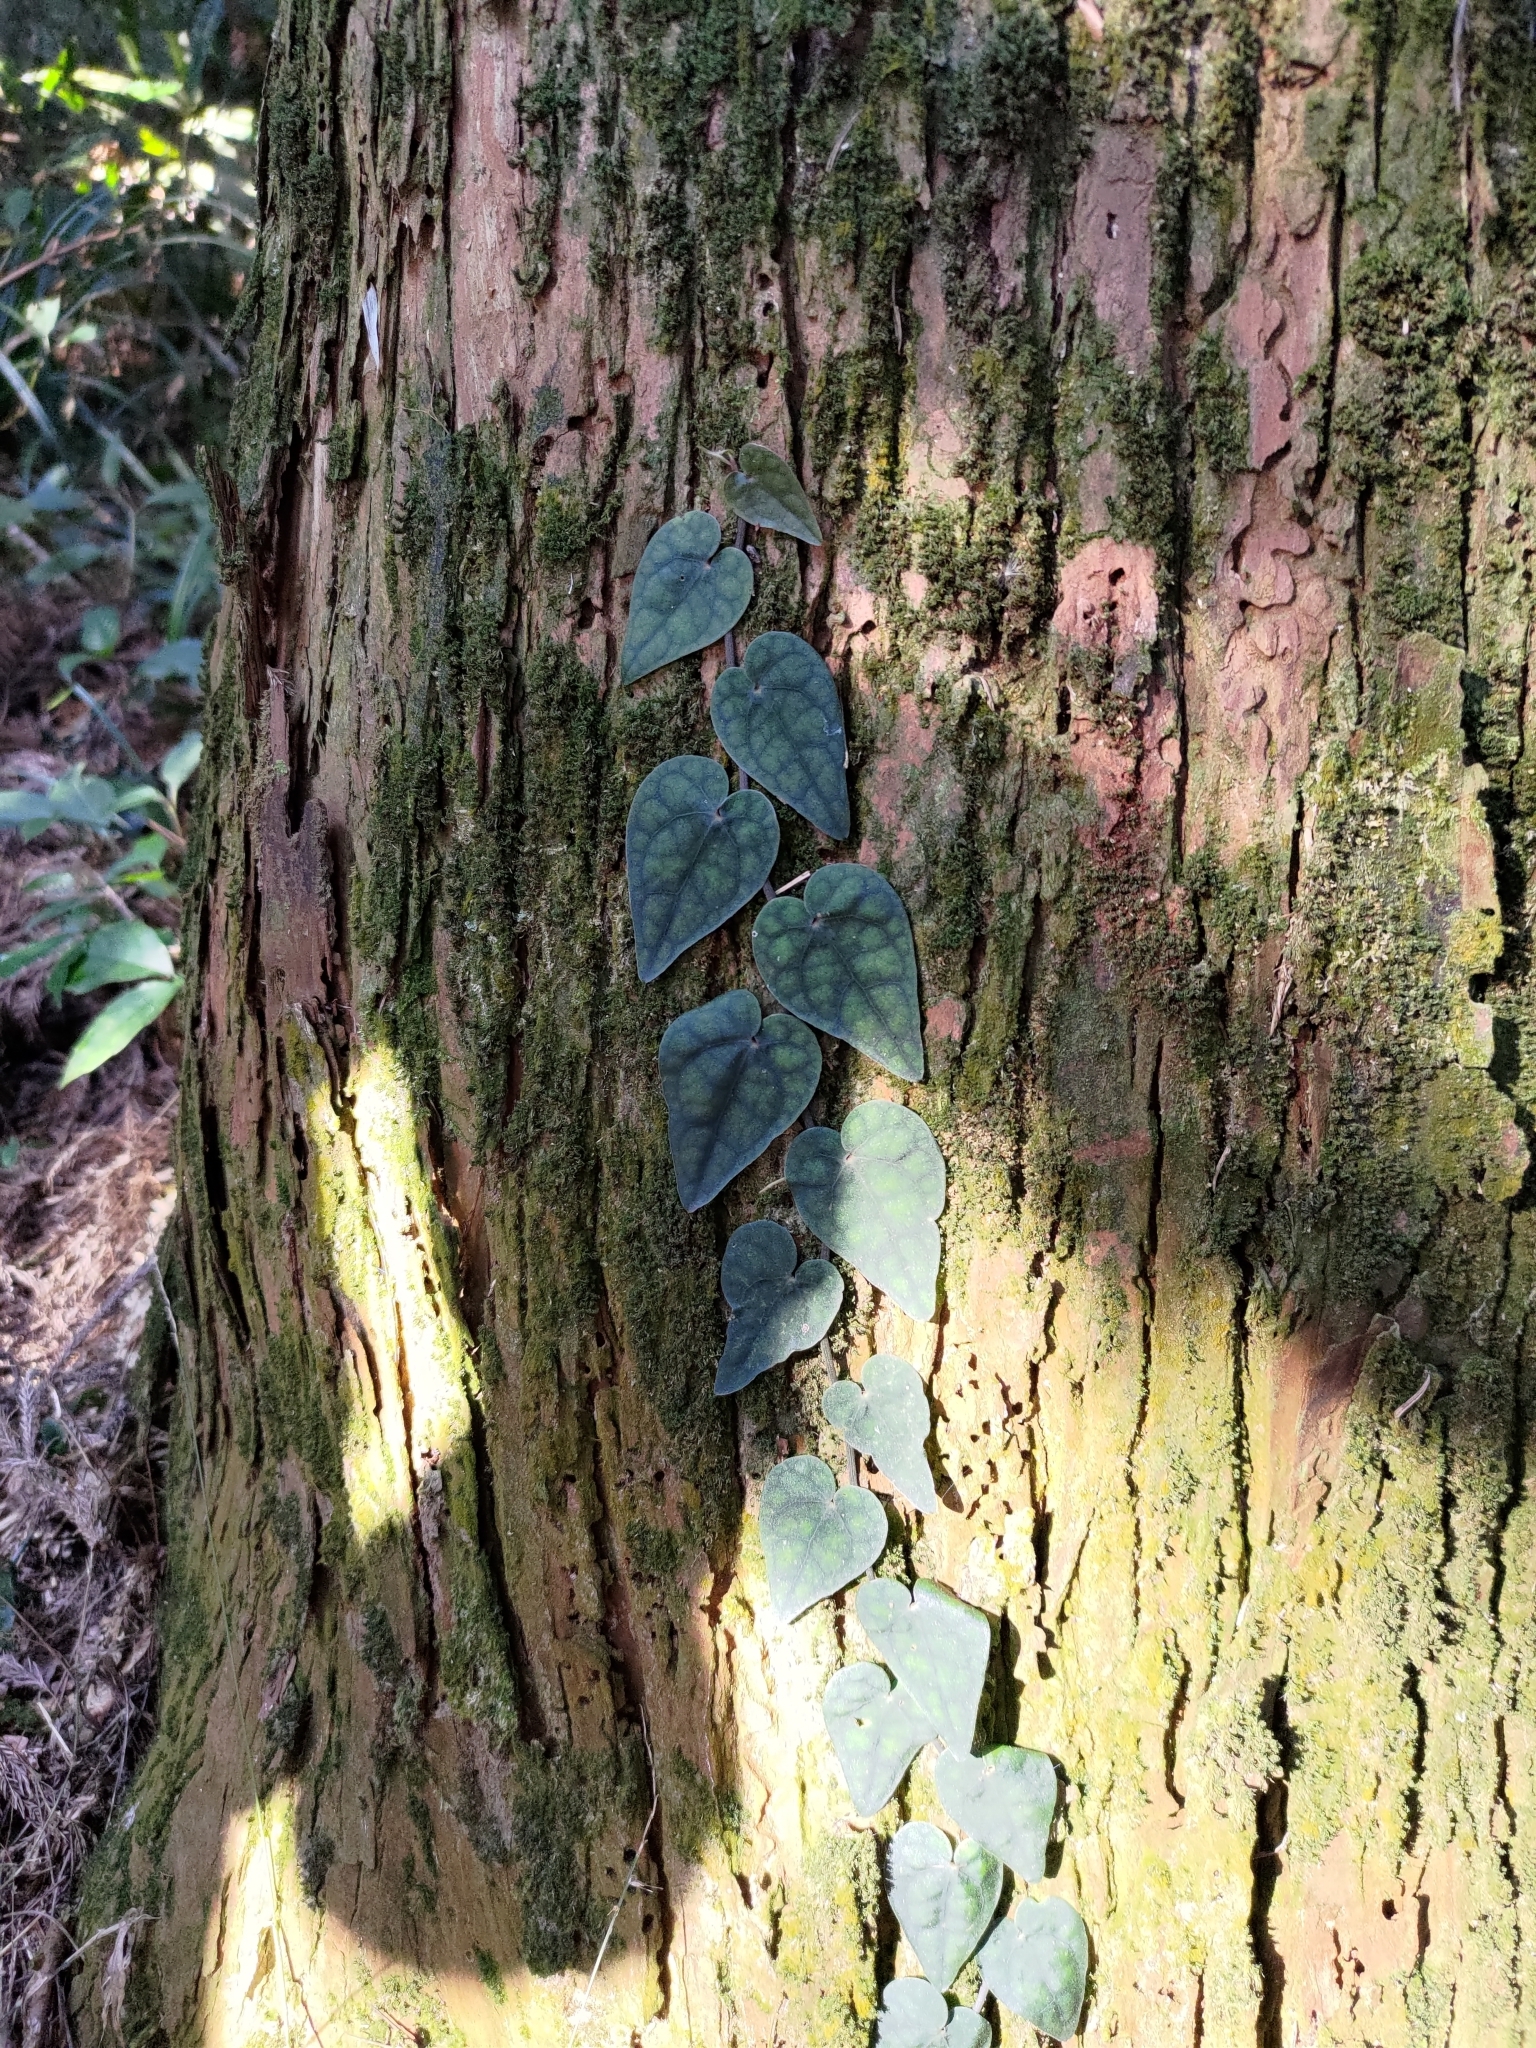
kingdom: Plantae
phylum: Tracheophyta
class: Magnoliopsida
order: Piperales
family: Piperaceae
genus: Piper
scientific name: Piper taiwanense
